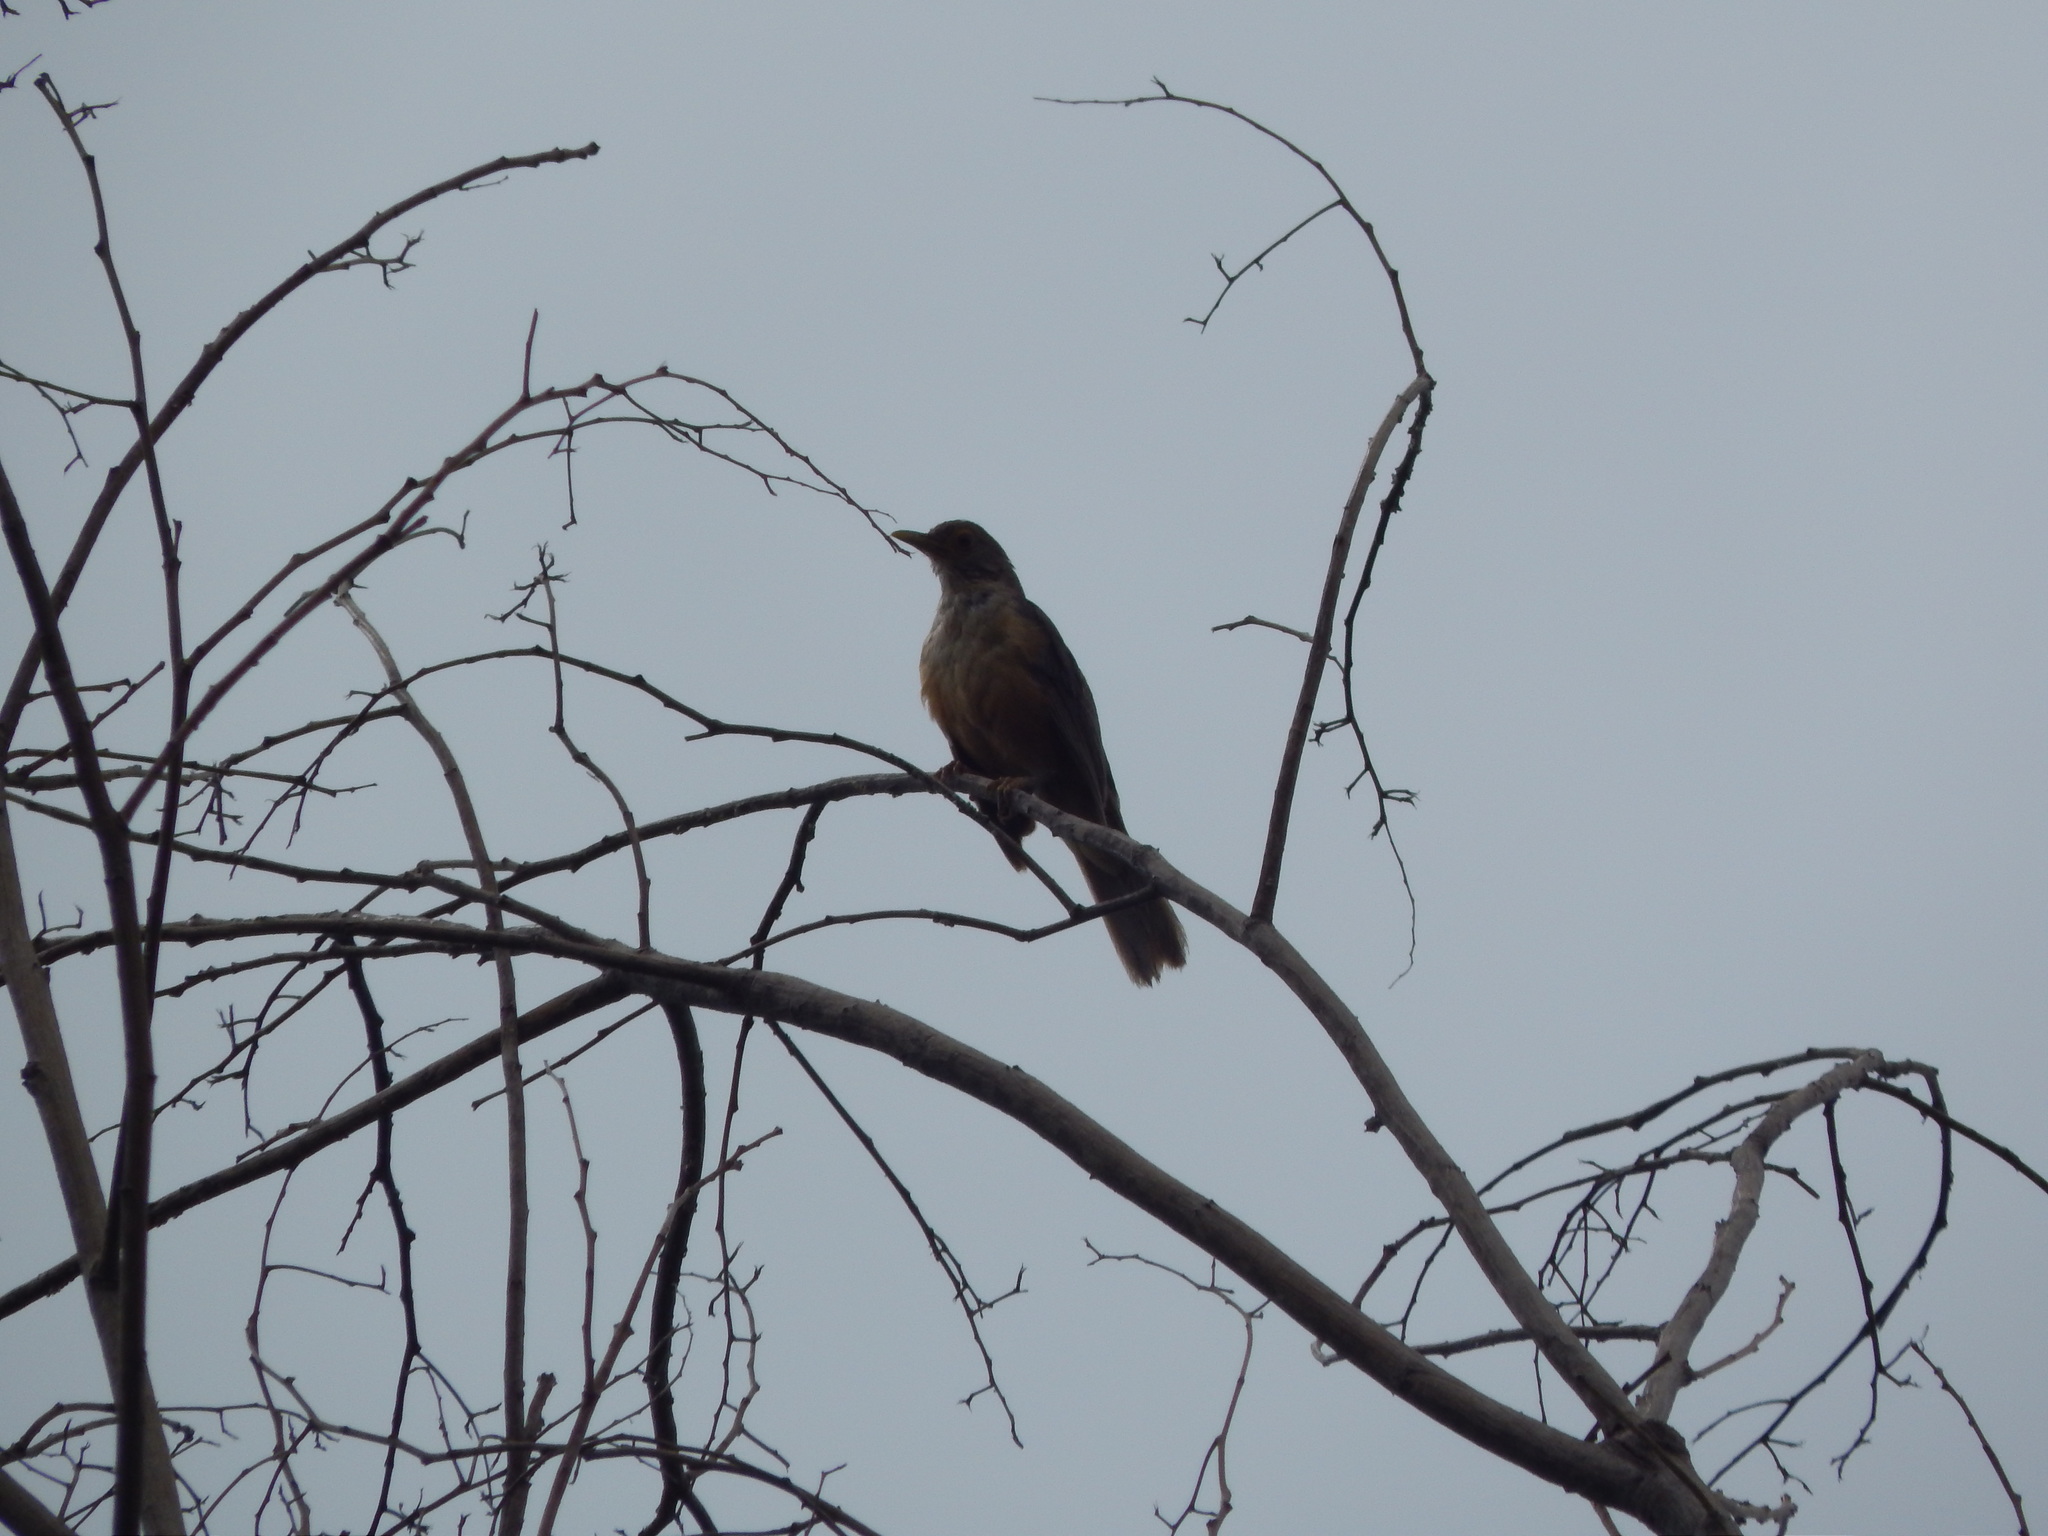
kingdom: Animalia
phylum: Chordata
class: Aves
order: Passeriformes
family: Turdidae
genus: Turdus
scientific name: Turdus rufiventris
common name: Rufous-bellied thrush
